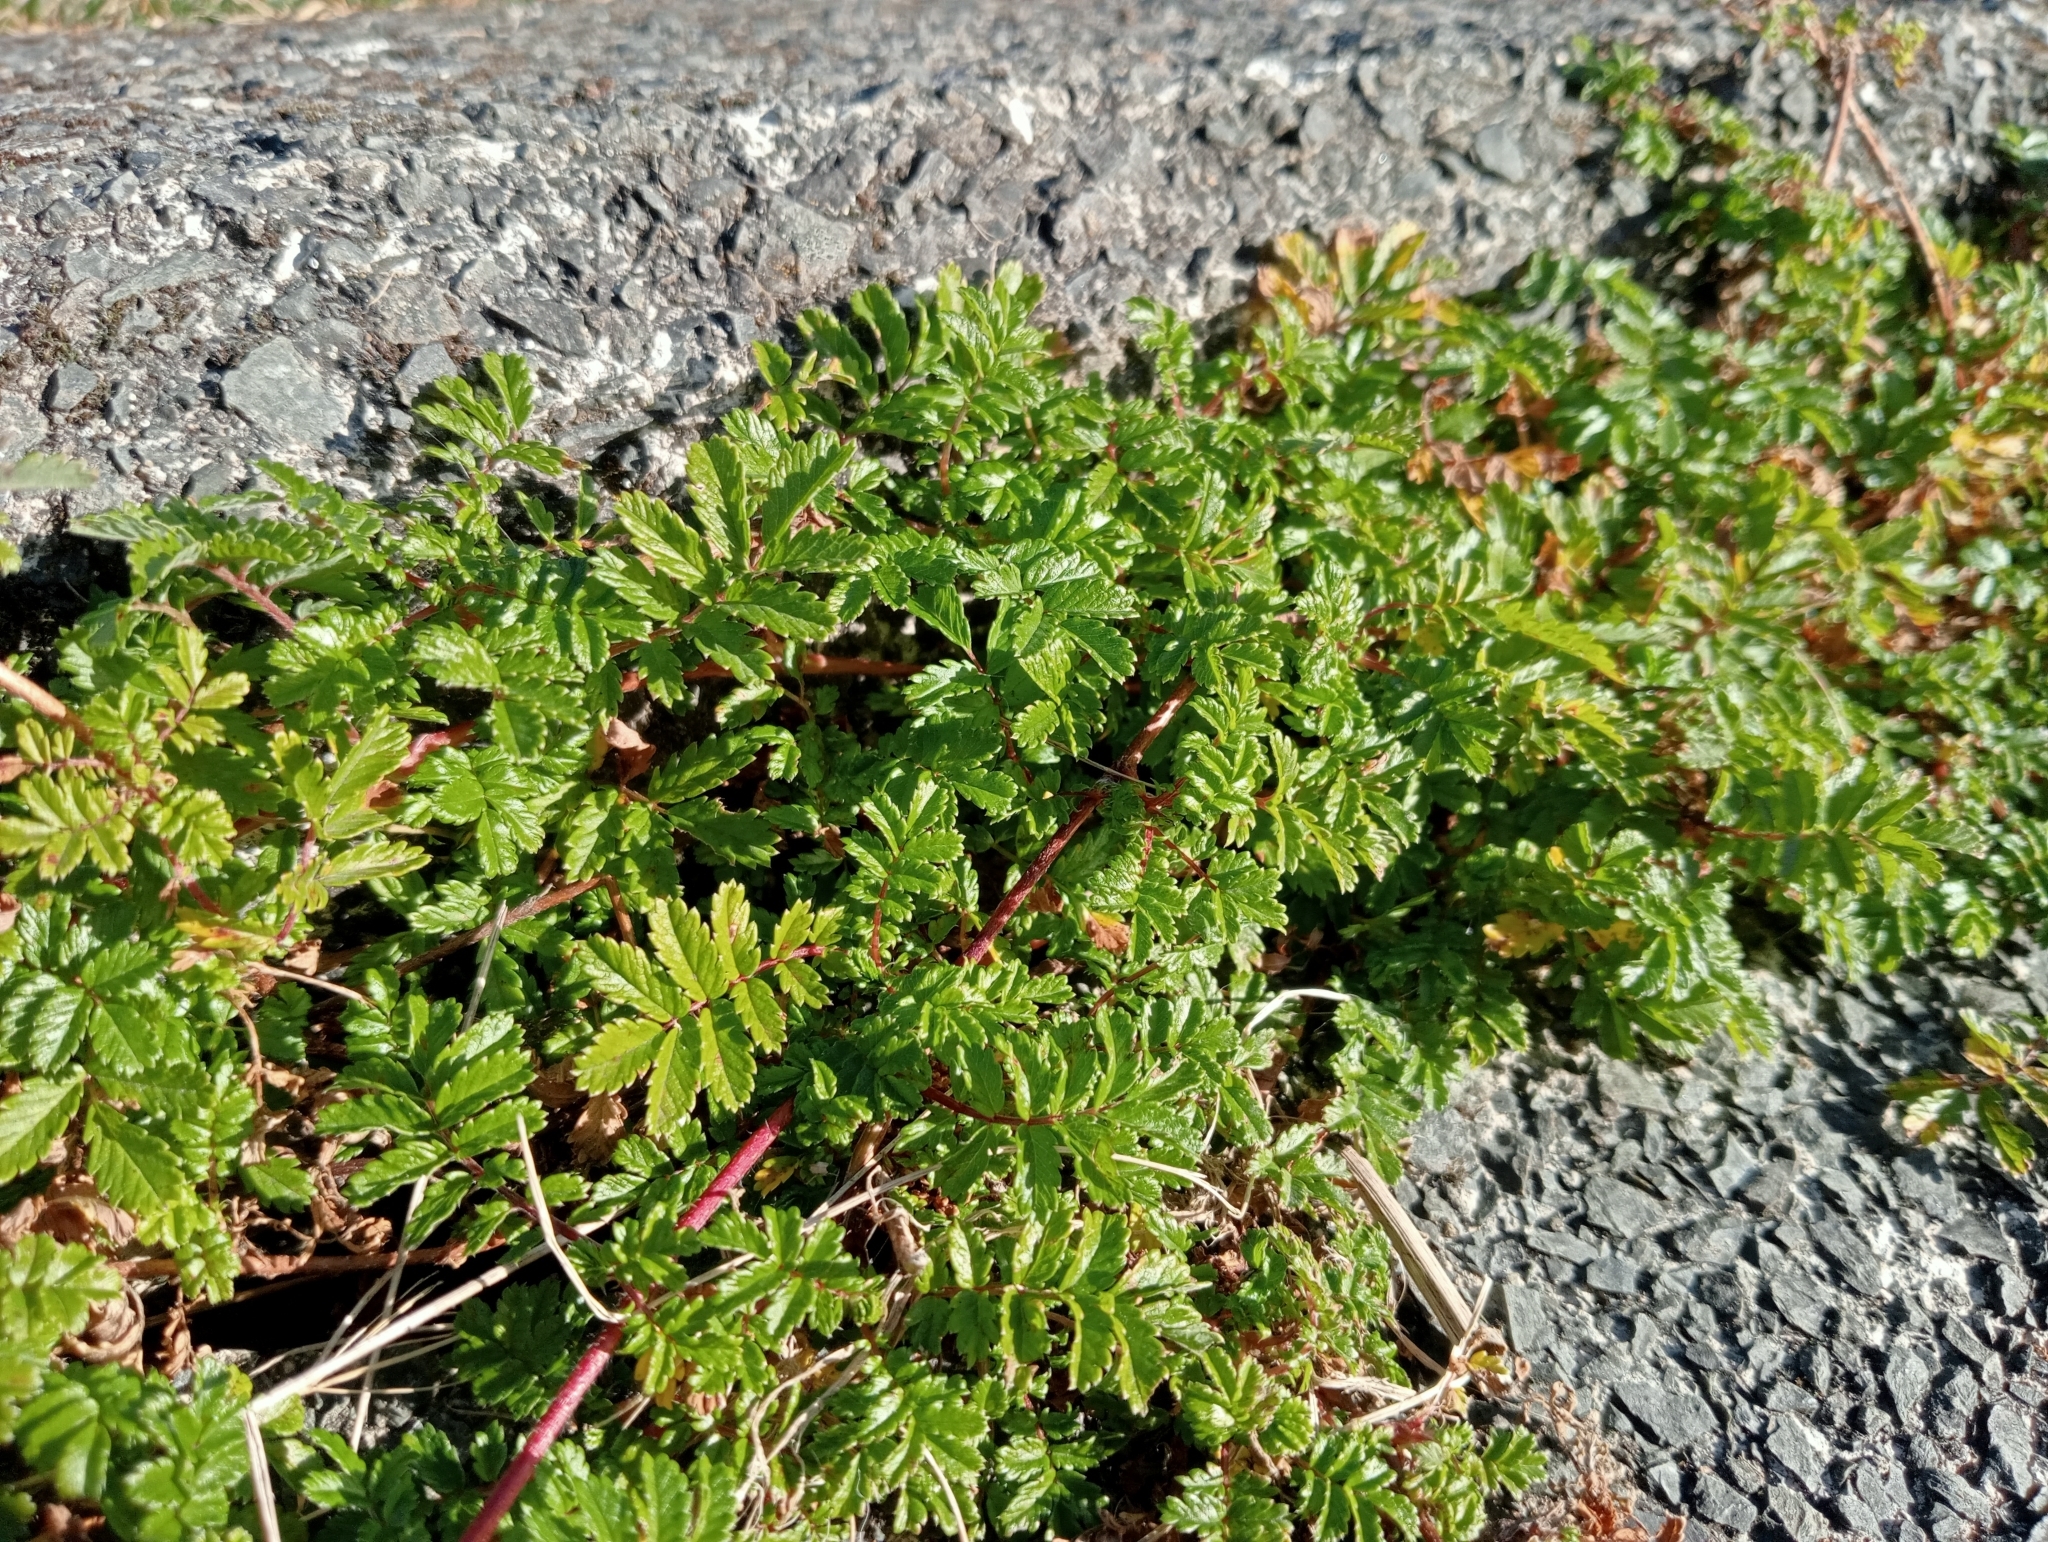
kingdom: Plantae
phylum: Tracheophyta
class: Magnoliopsida
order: Rosales
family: Rosaceae
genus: Acaena
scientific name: Acaena novae-zelandiae
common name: Pirri-pirri-bur
